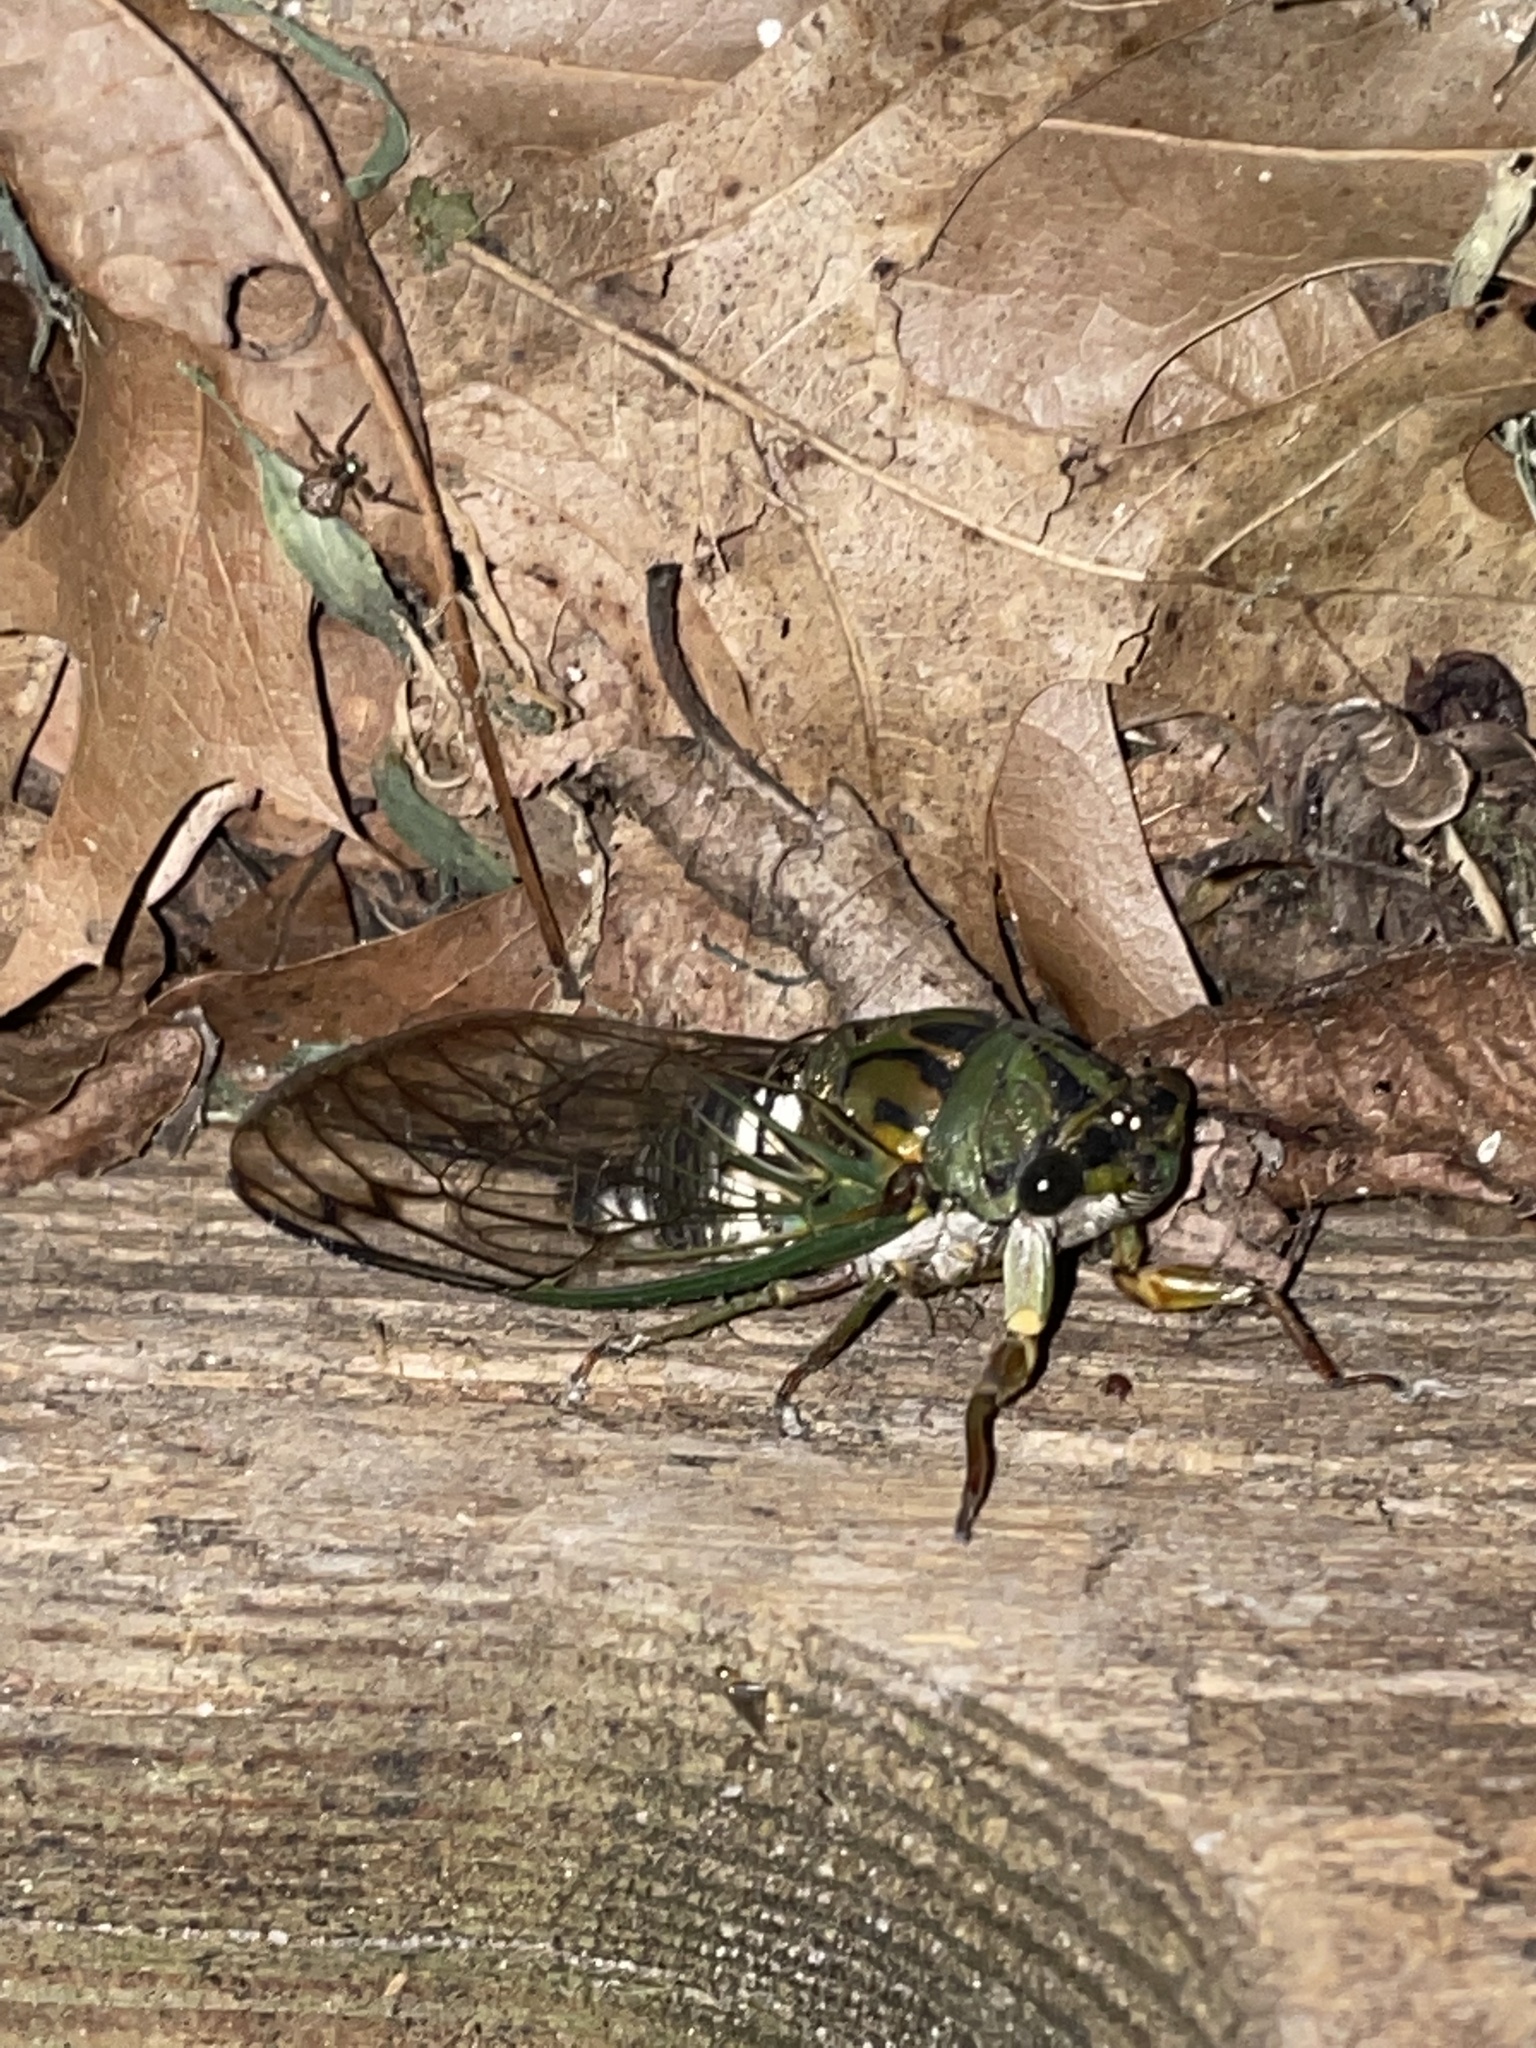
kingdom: Animalia
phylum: Arthropoda
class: Insecta
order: Hemiptera
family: Cicadidae
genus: Neotibicen
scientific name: Neotibicen latifasciatus
